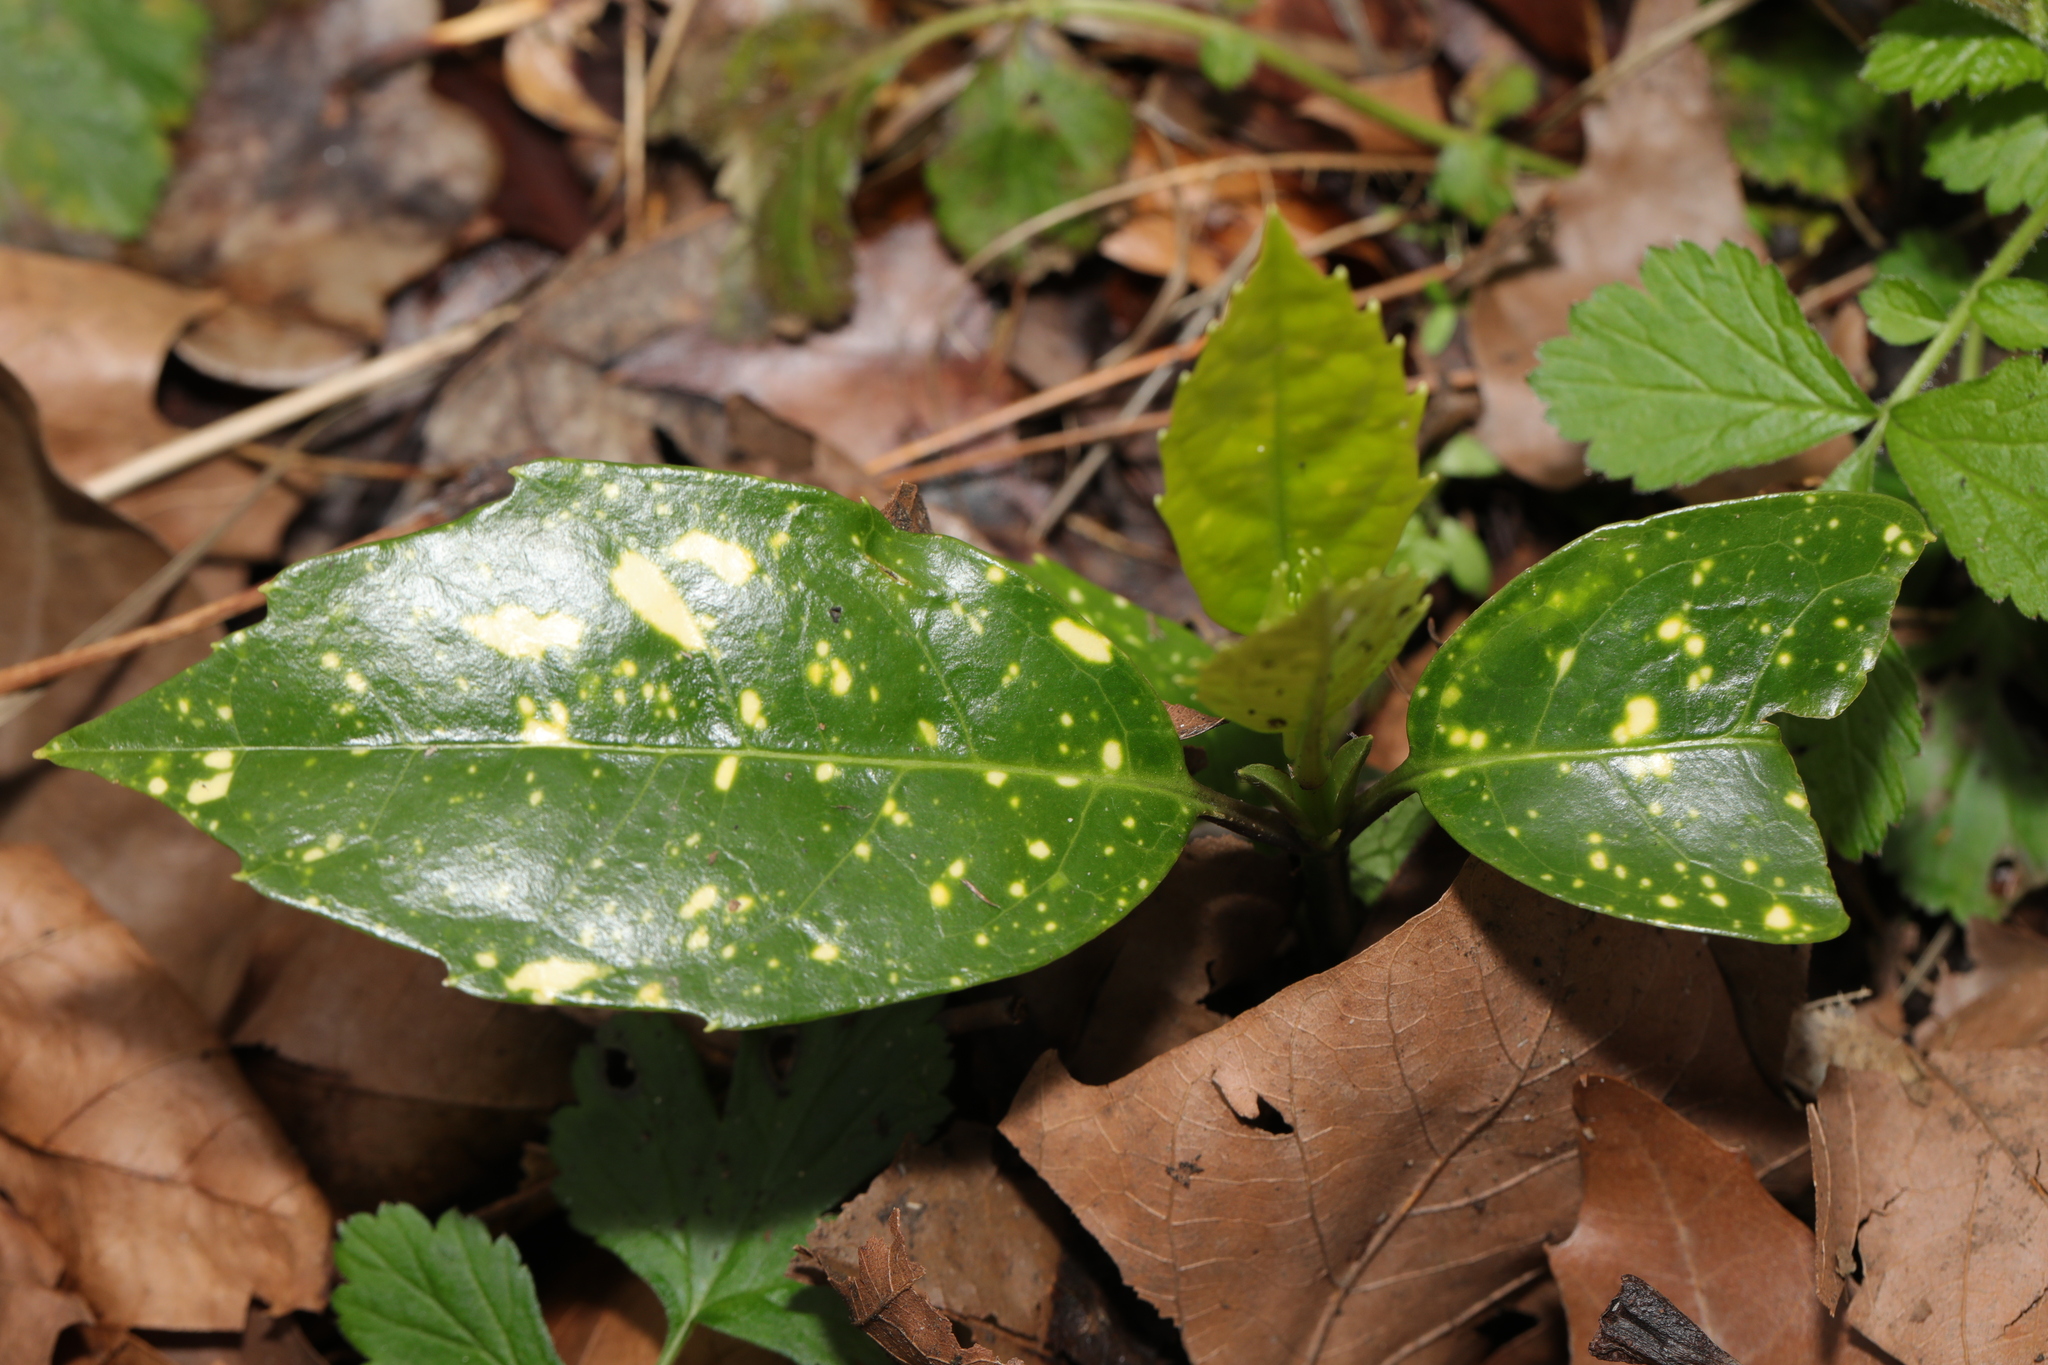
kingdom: Plantae
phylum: Tracheophyta
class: Magnoliopsida
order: Garryales
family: Garryaceae
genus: Aucuba
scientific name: Aucuba japonica
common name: Spotted-laurel
